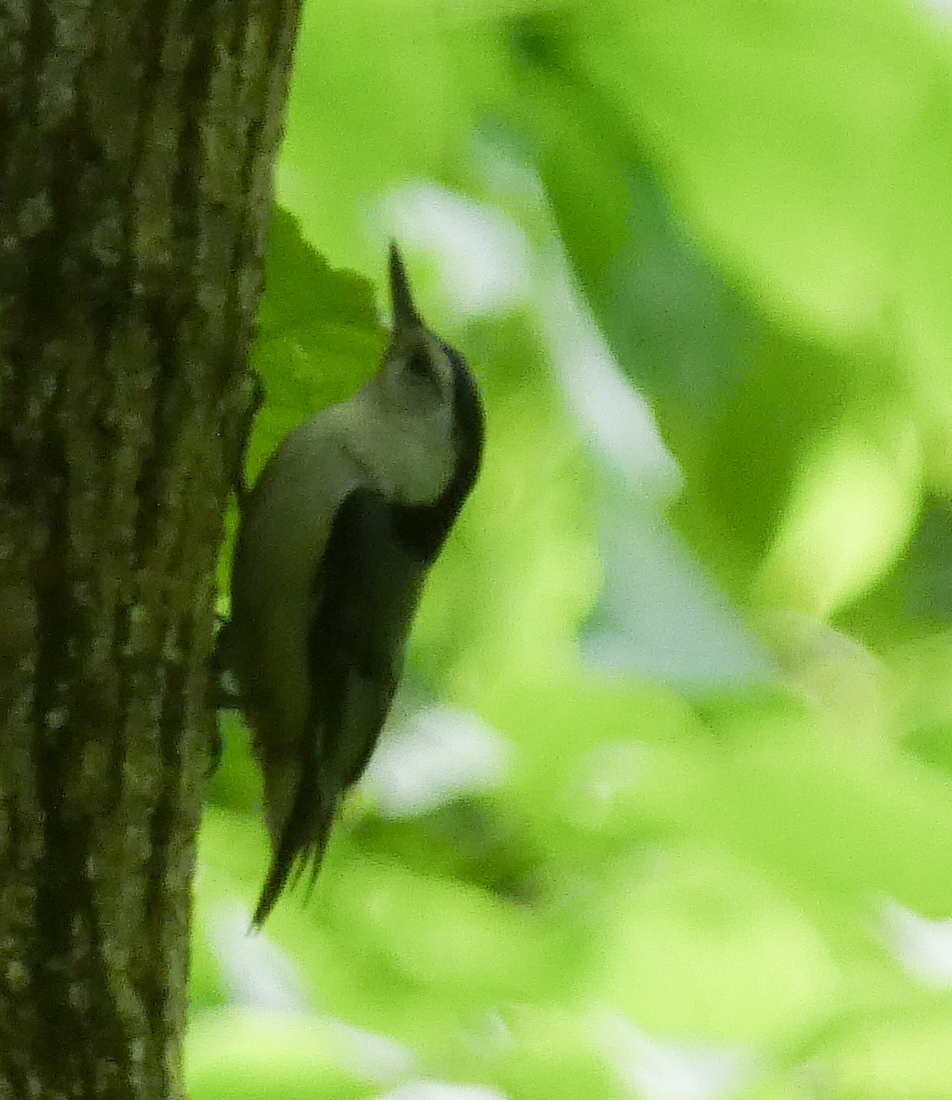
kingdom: Animalia
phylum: Chordata
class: Aves
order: Passeriformes
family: Sittidae
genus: Sitta
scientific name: Sitta carolinensis
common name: White-breasted nuthatch
